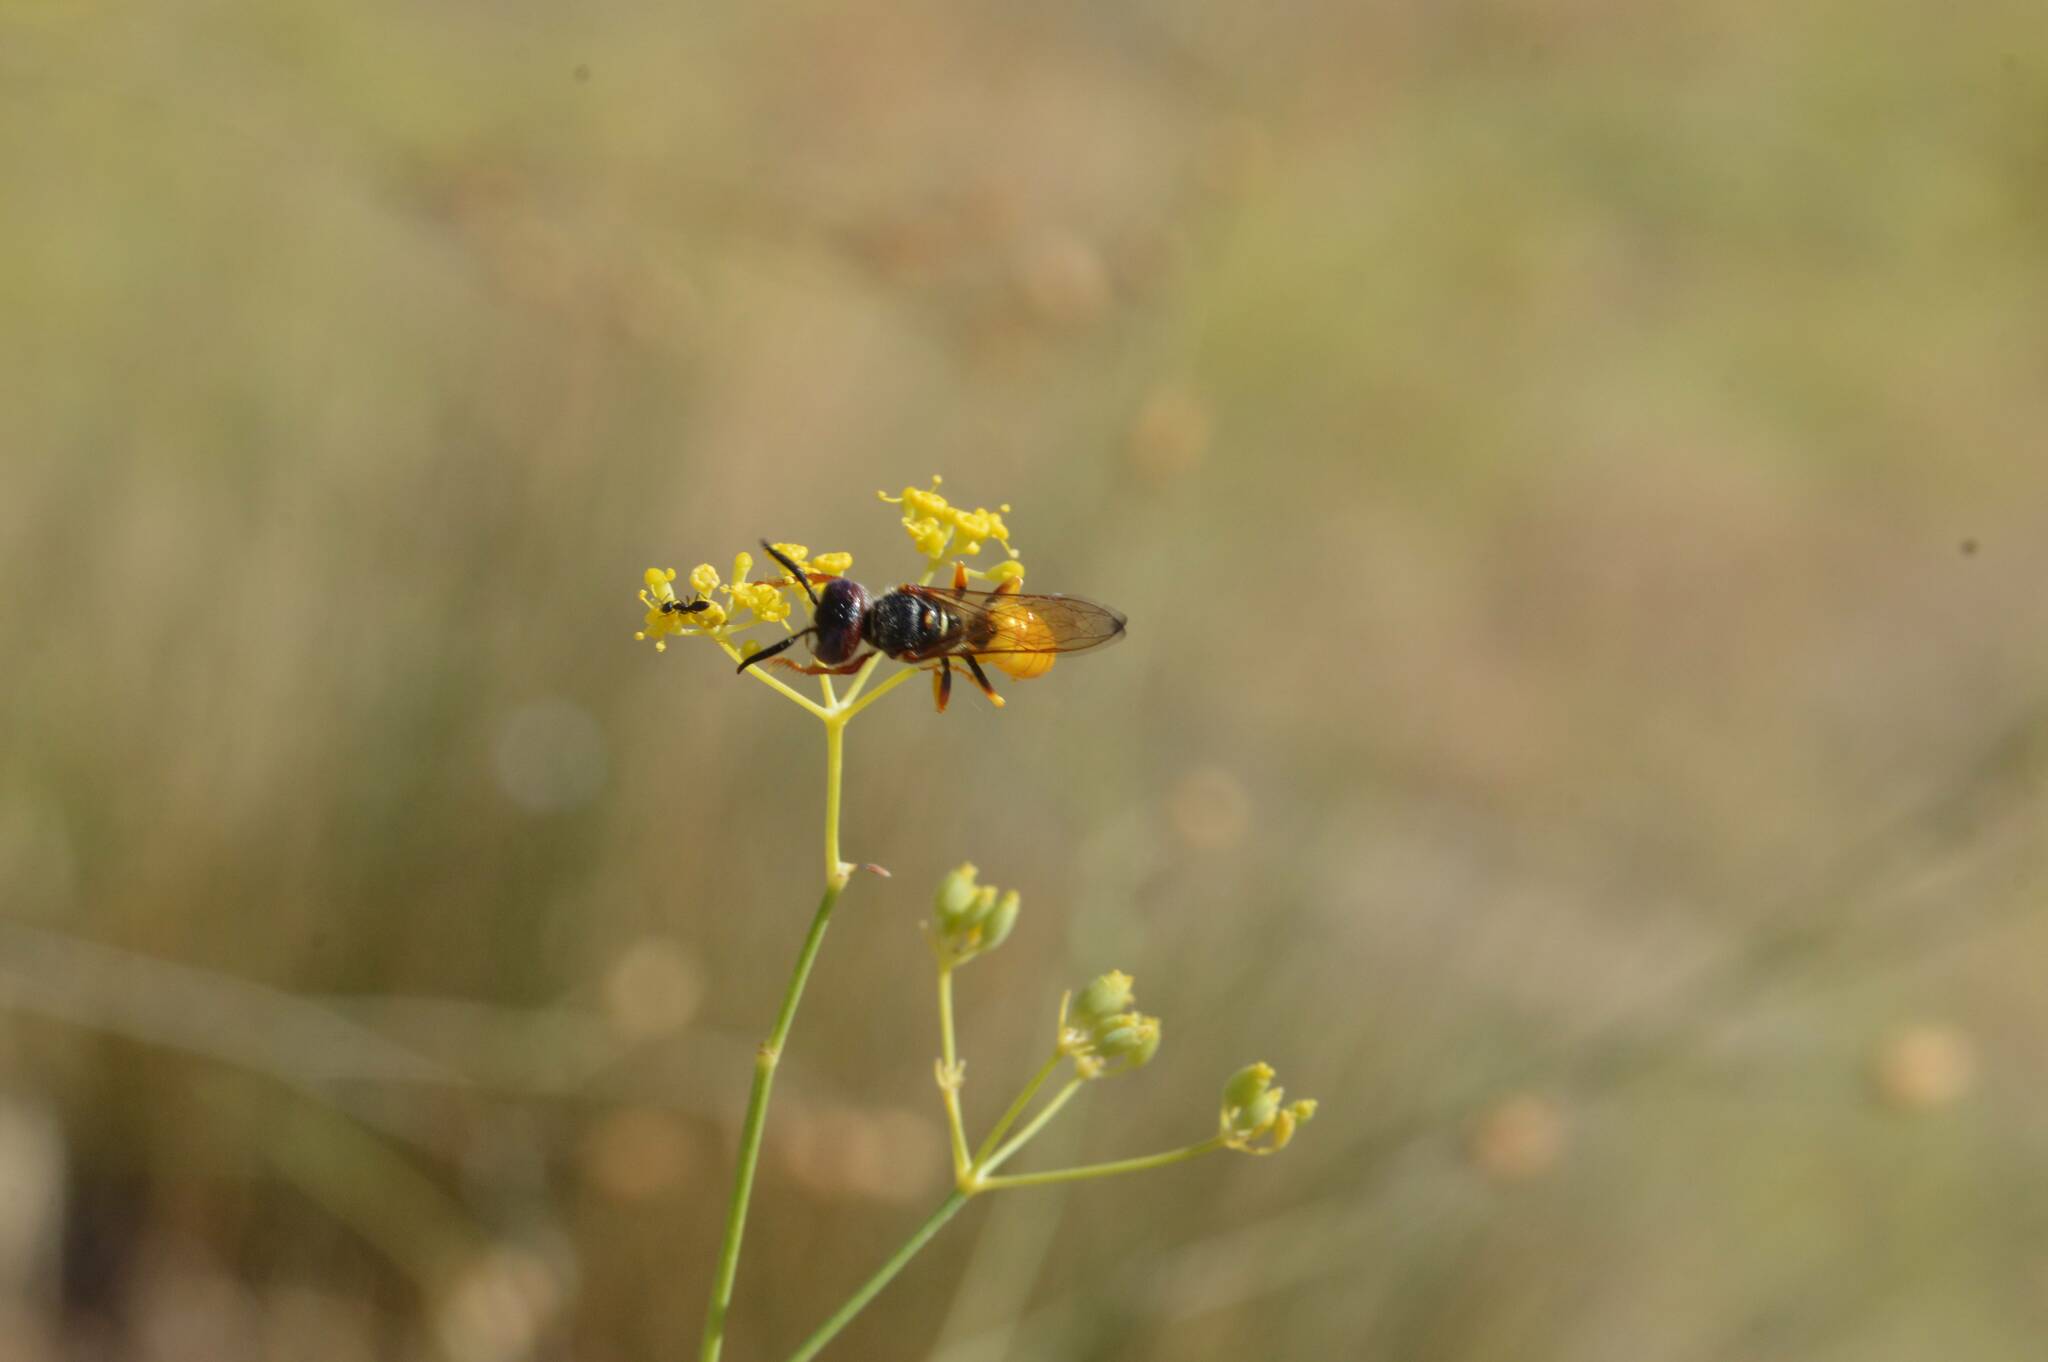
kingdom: Animalia
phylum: Arthropoda
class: Insecta
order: Hymenoptera
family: Crabronidae
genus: Philanthus
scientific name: Philanthus triangulum
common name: Bee wolf
